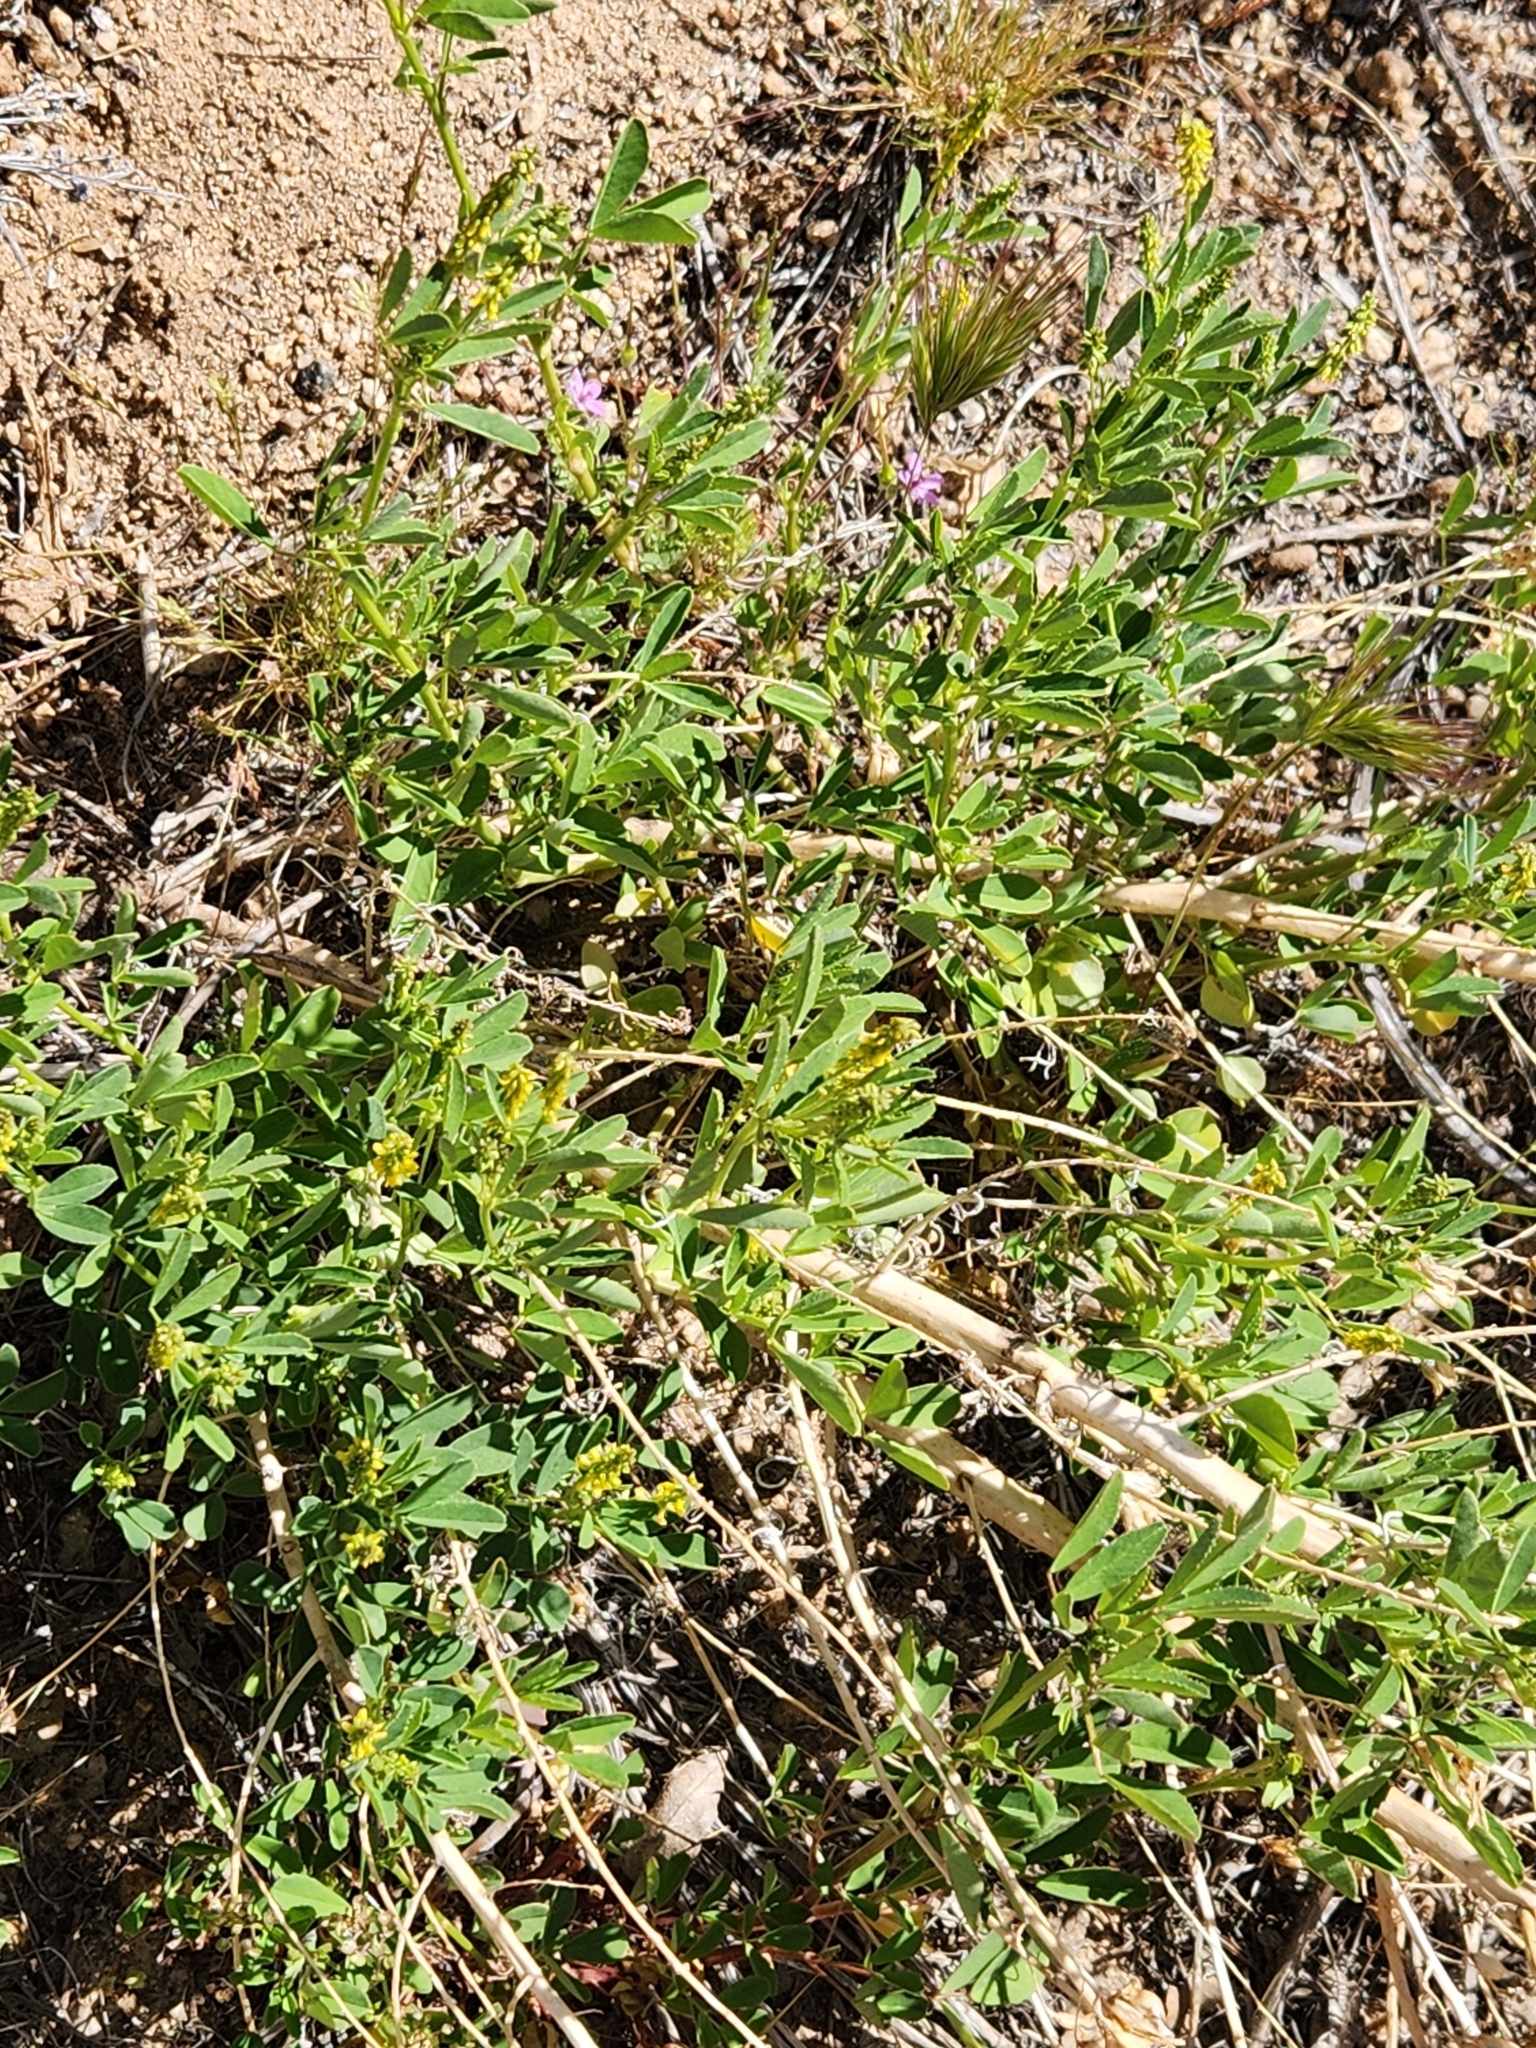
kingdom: Plantae
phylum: Tracheophyta
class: Magnoliopsida
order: Fabales
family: Fabaceae
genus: Melilotus
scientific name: Melilotus indicus
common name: Small melilot
